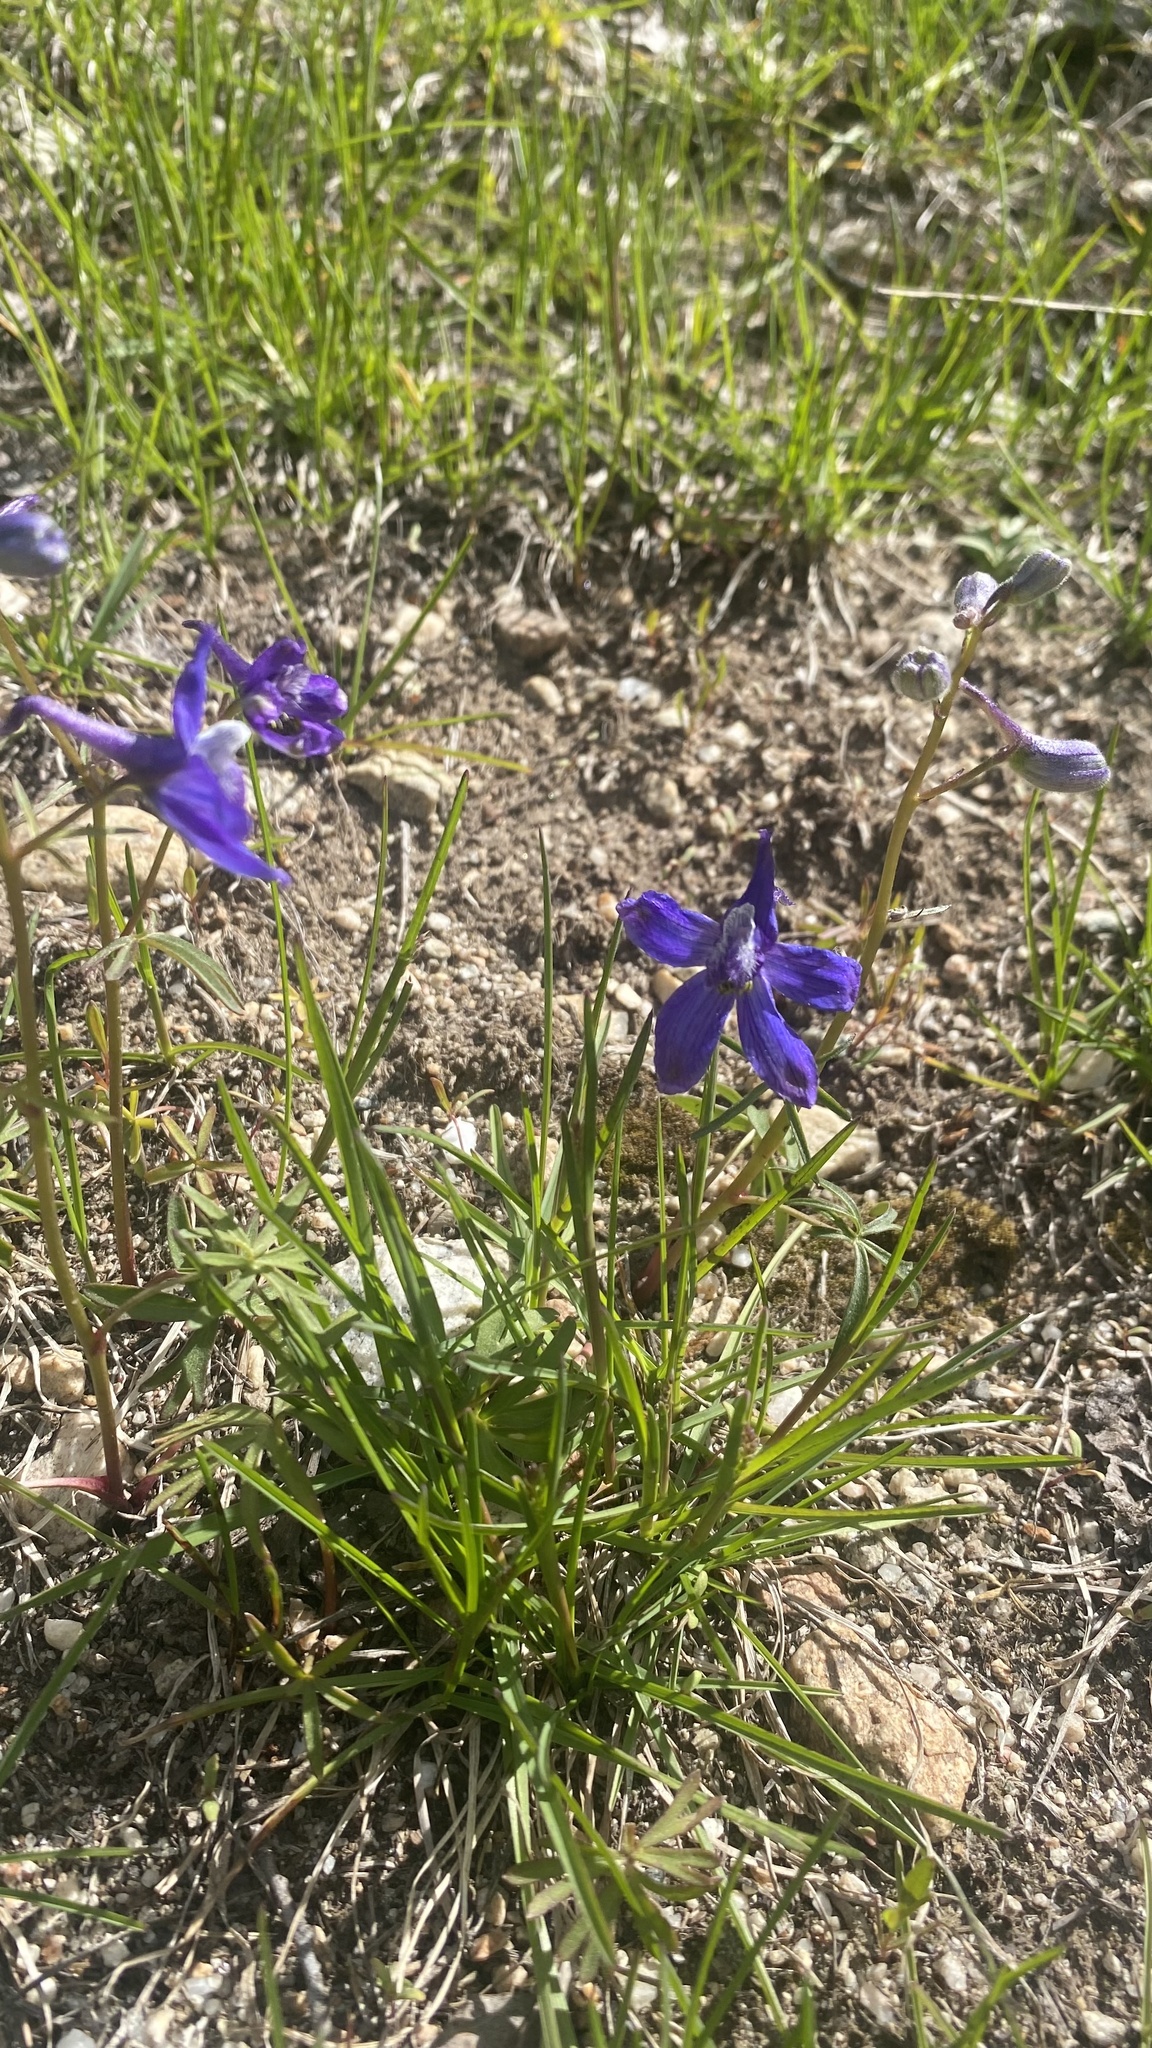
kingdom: Plantae
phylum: Tracheophyta
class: Magnoliopsida
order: Ranunculales
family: Ranunculaceae
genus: Delphinium
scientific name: Delphinium bicolor
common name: Low larkspur
